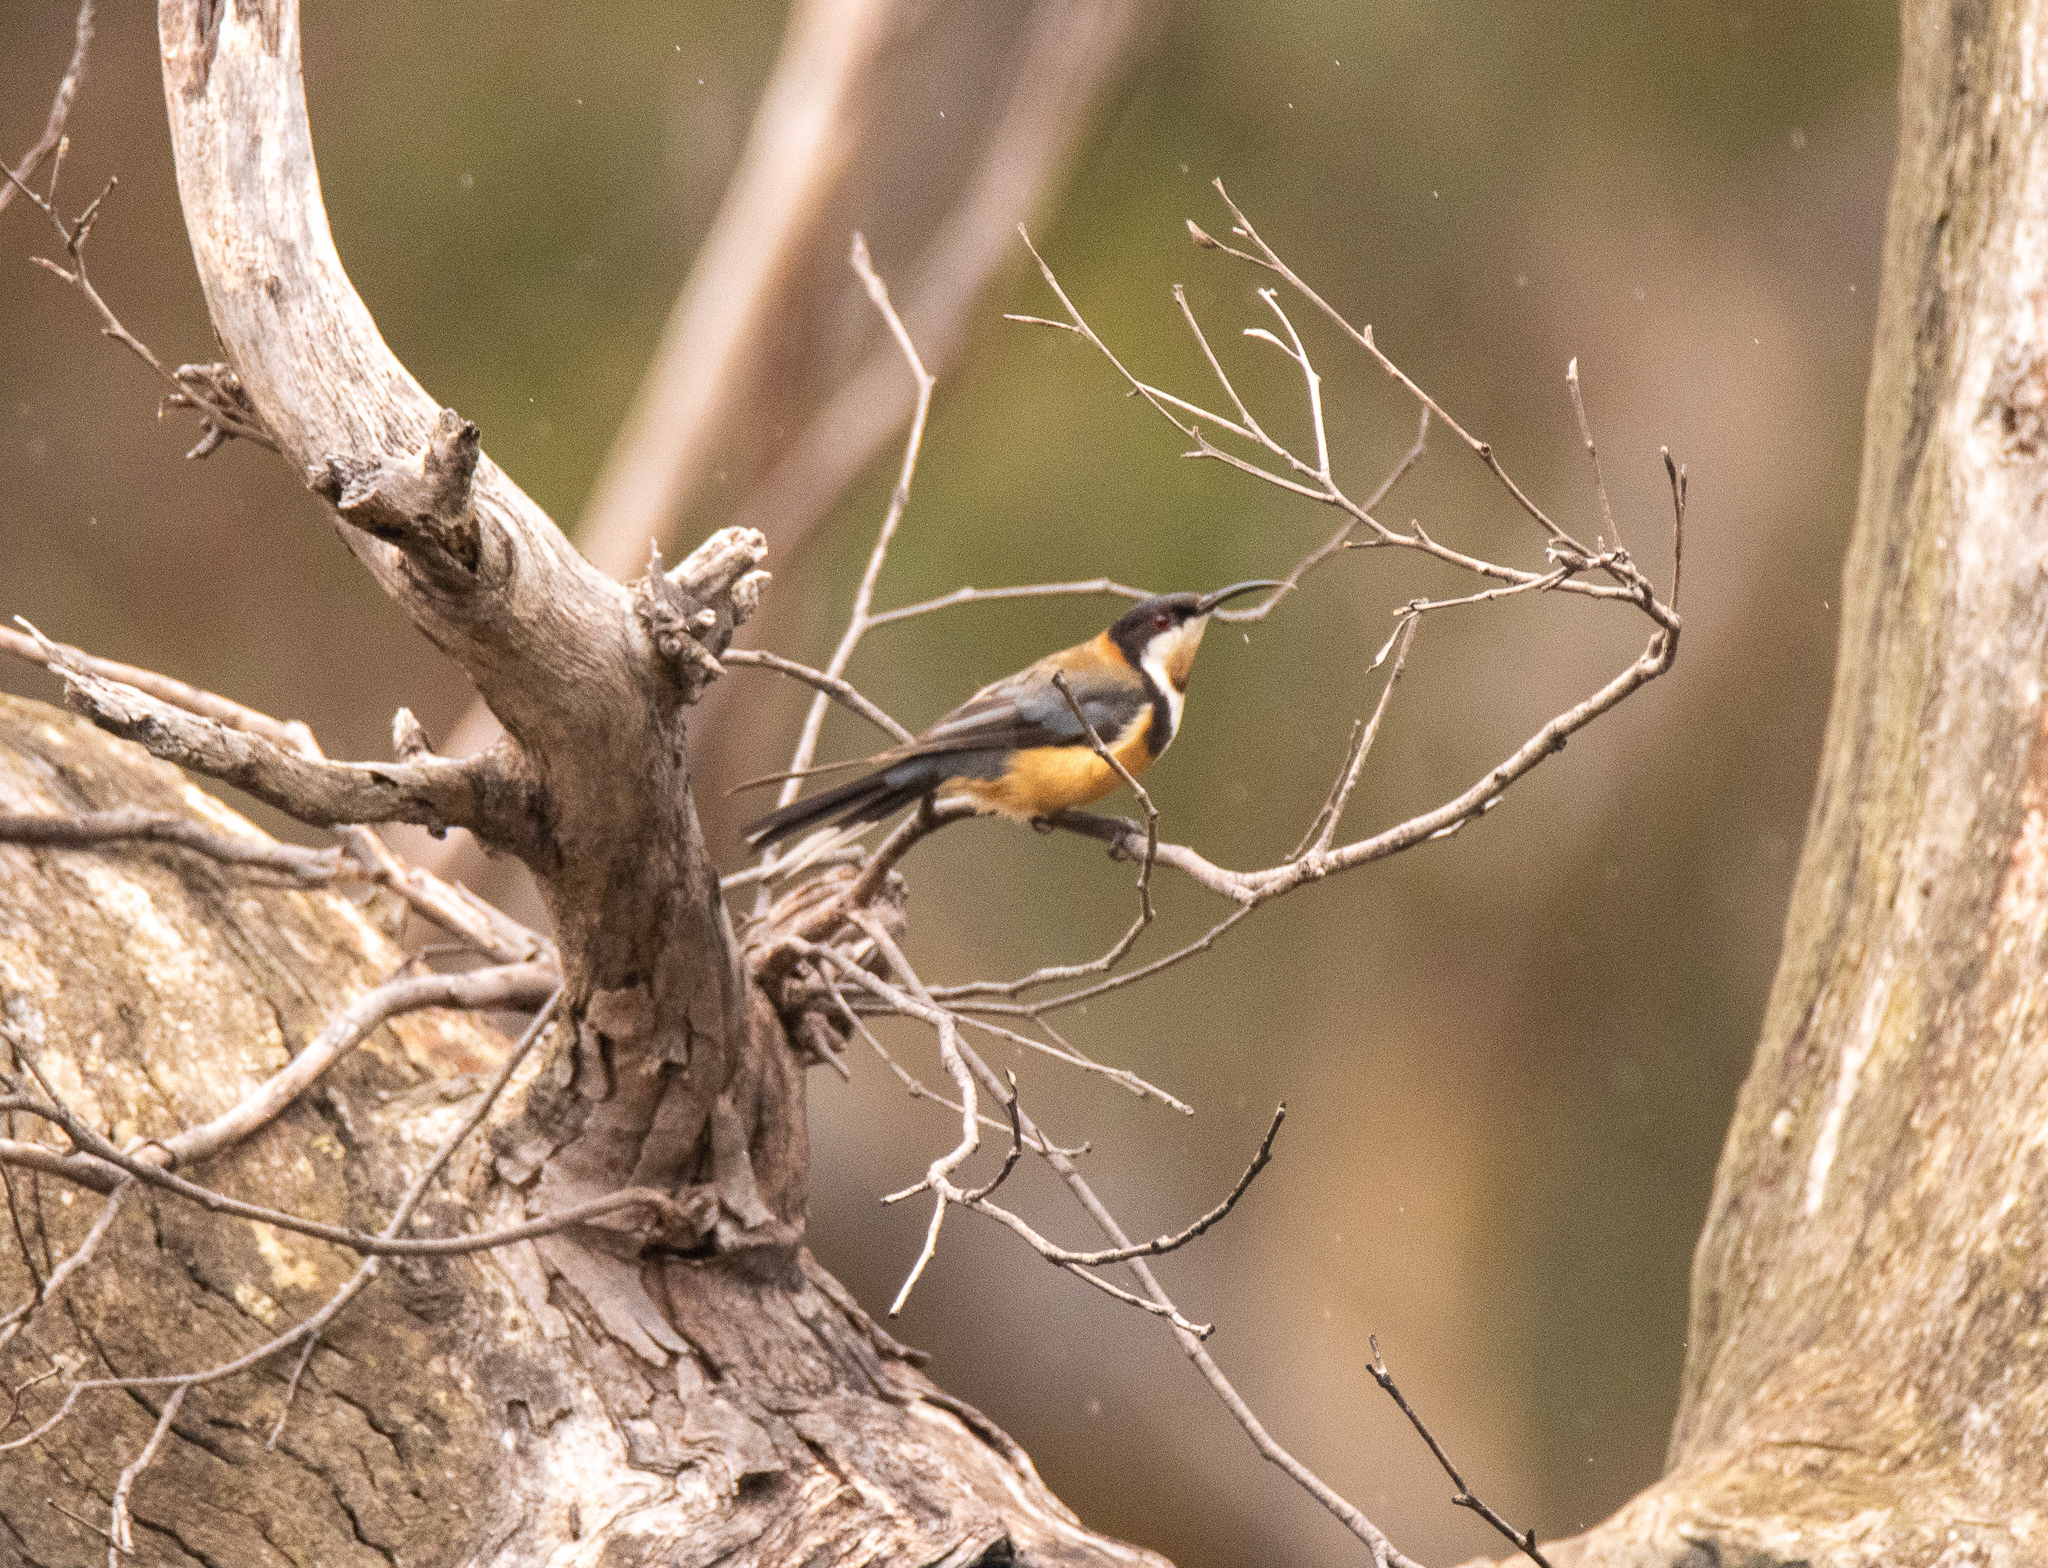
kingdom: Animalia
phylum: Chordata
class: Aves
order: Passeriformes
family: Meliphagidae
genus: Acanthorhynchus
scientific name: Acanthorhynchus tenuirostris
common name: Eastern spinebill
